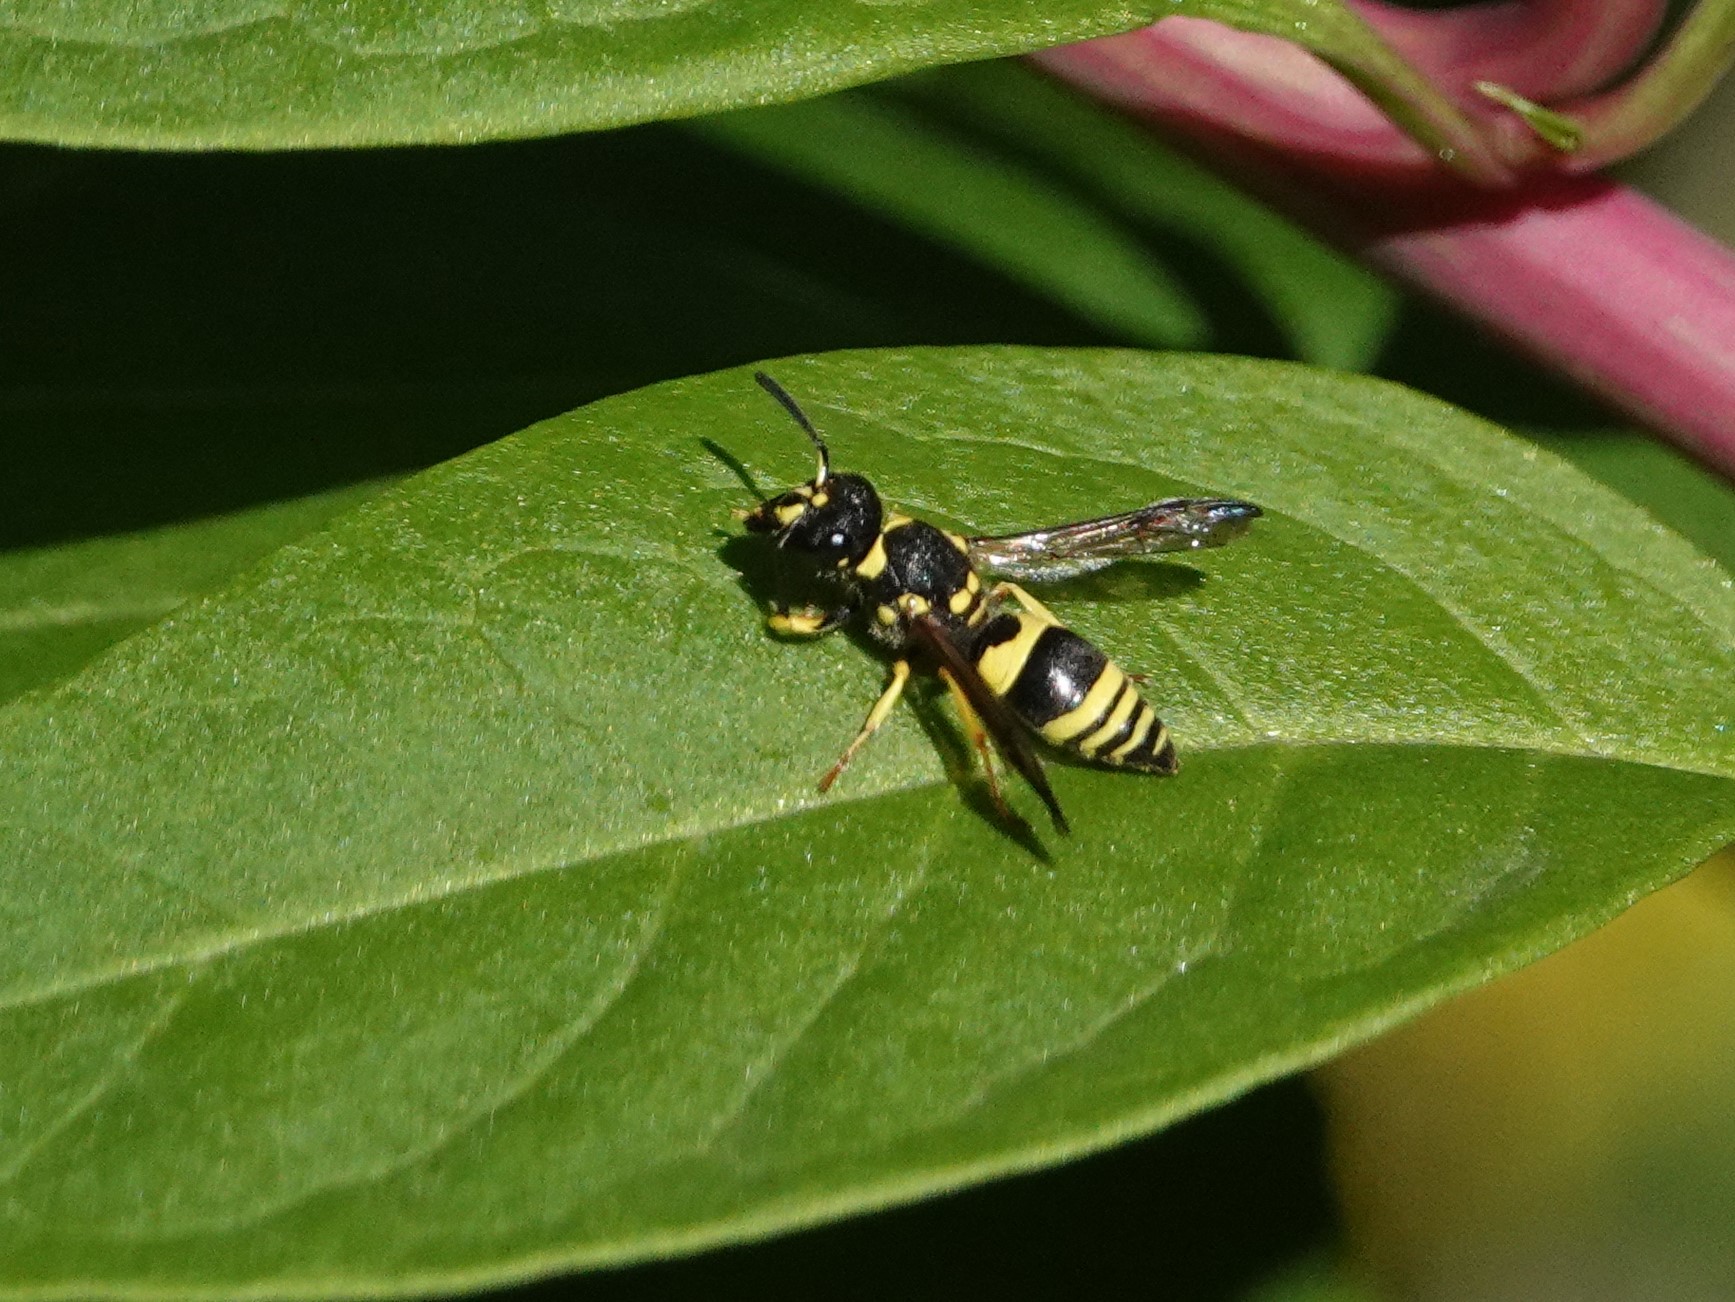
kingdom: Animalia
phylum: Arthropoda
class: Insecta
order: Hymenoptera
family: Vespidae
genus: Ancistrocerus
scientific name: Ancistrocerus gazella
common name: European tube wasp
